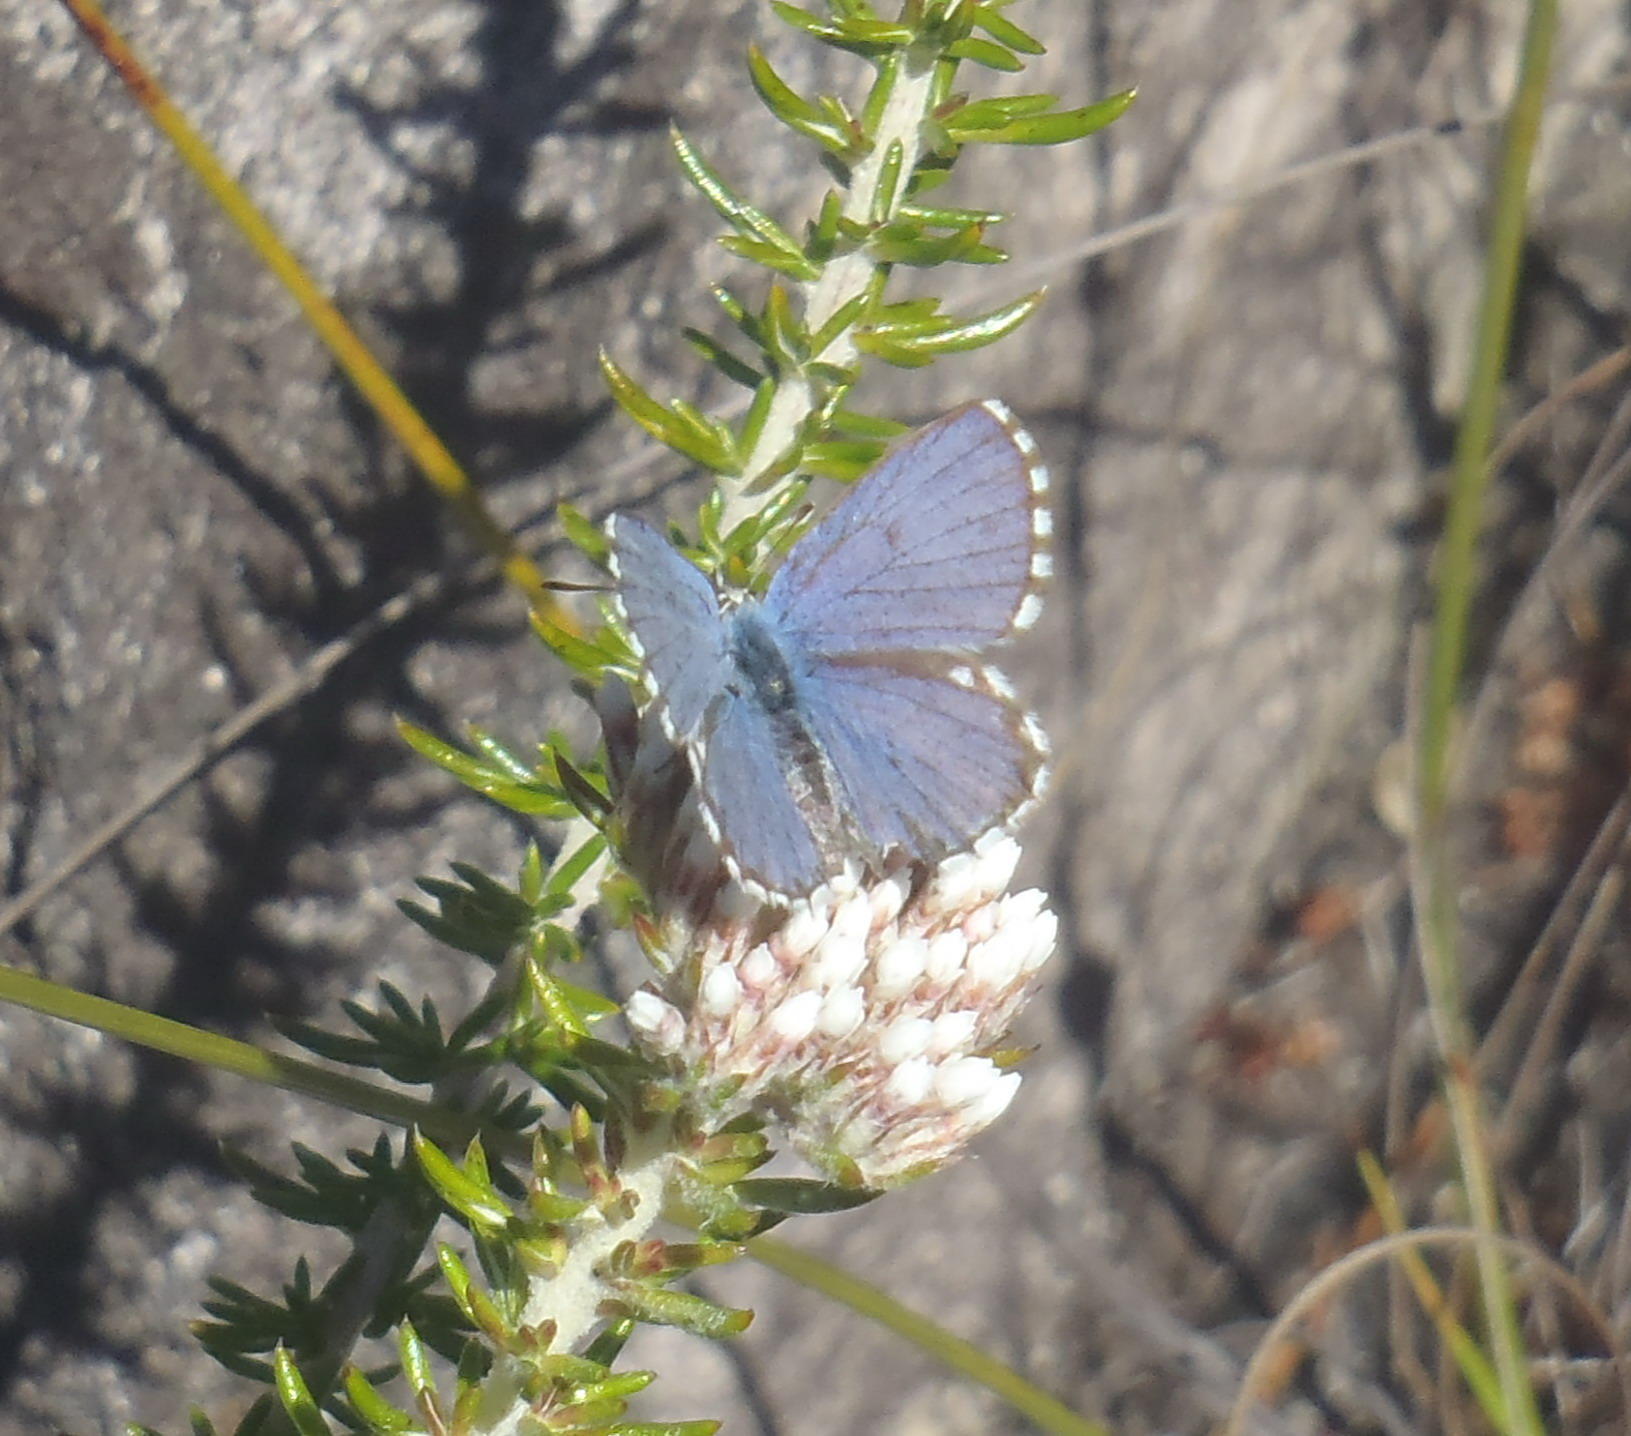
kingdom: Animalia
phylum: Arthropoda
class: Insecta
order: Lepidoptera
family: Lycaenidae
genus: Tarucus
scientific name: Tarucus thespis
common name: Vivid dotted blue
